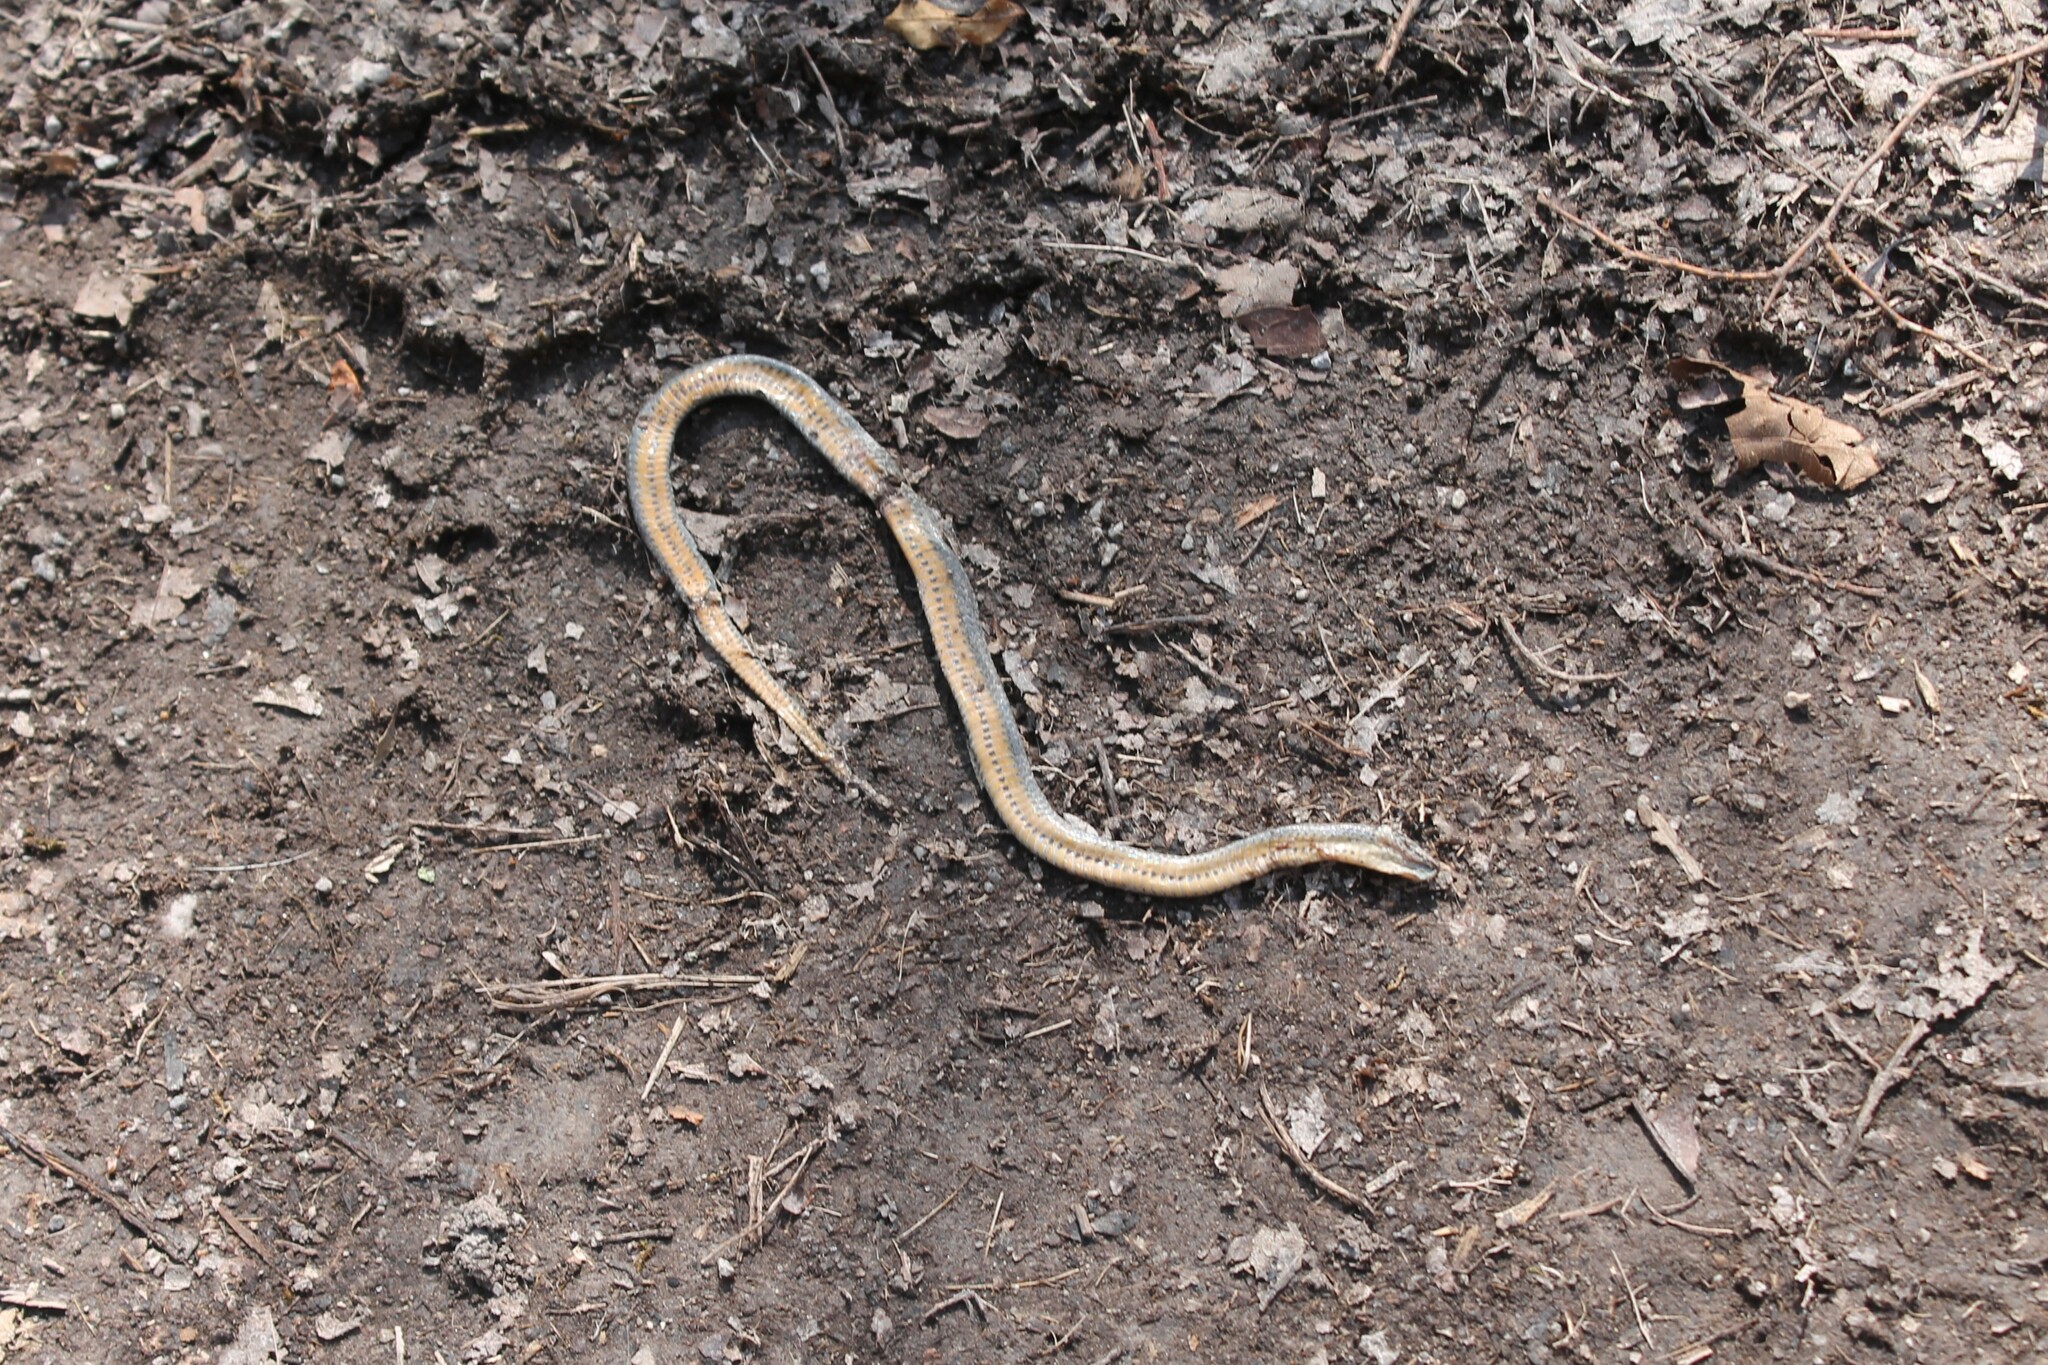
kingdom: Animalia
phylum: Chordata
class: Squamata
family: Colubridae
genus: Diadophis
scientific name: Diadophis punctatus
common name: Ringneck snake
